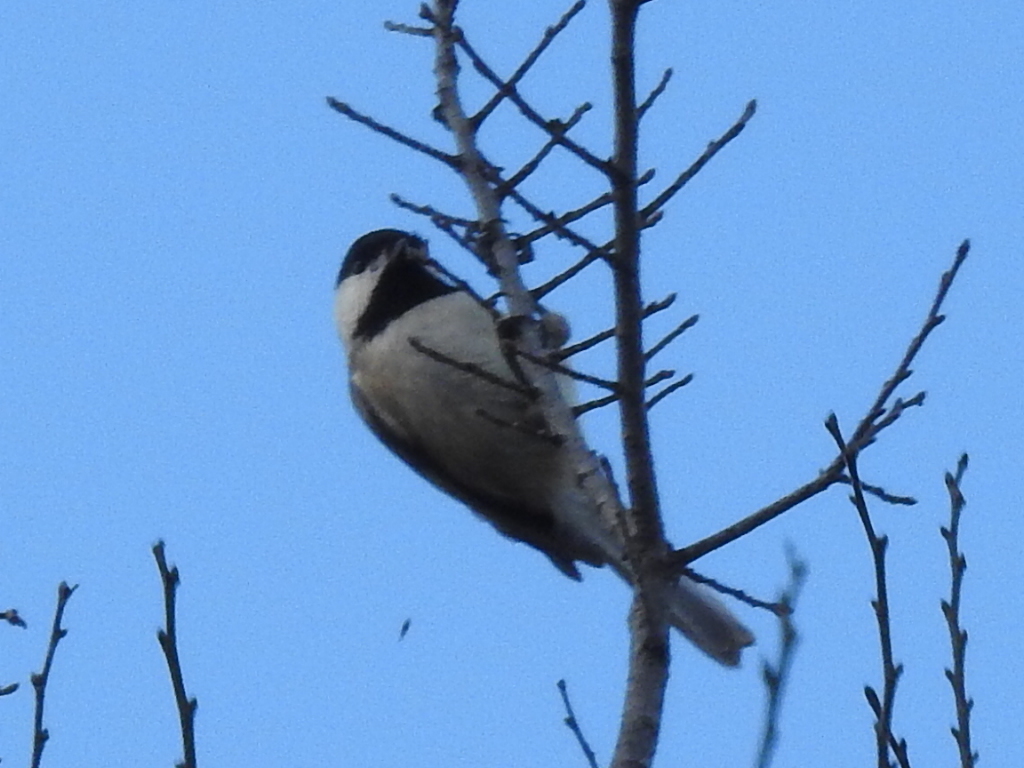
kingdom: Animalia
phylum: Chordata
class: Aves
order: Passeriformes
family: Paridae
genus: Poecile
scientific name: Poecile carolinensis
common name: Carolina chickadee
